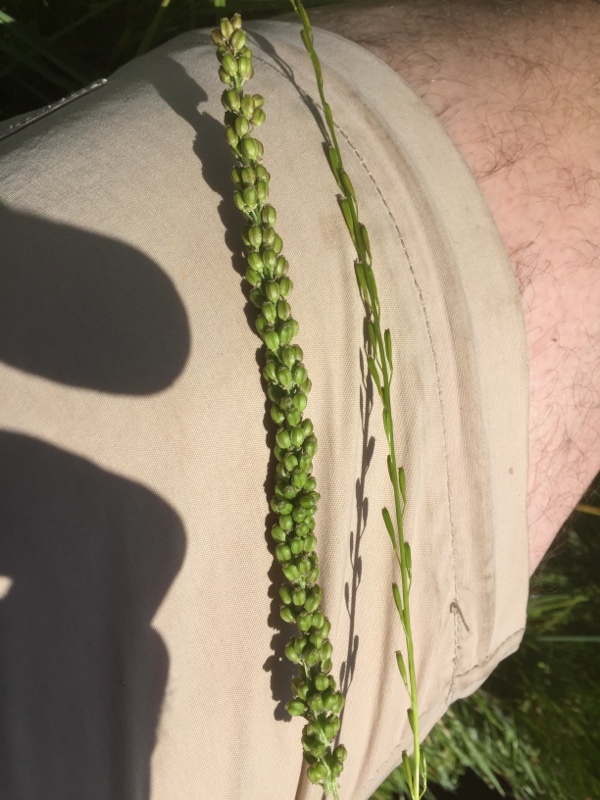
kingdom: Plantae
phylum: Tracheophyta
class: Liliopsida
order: Alismatales
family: Juncaginaceae
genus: Triglochin
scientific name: Triglochin palustris
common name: Marsh arrowgrass
